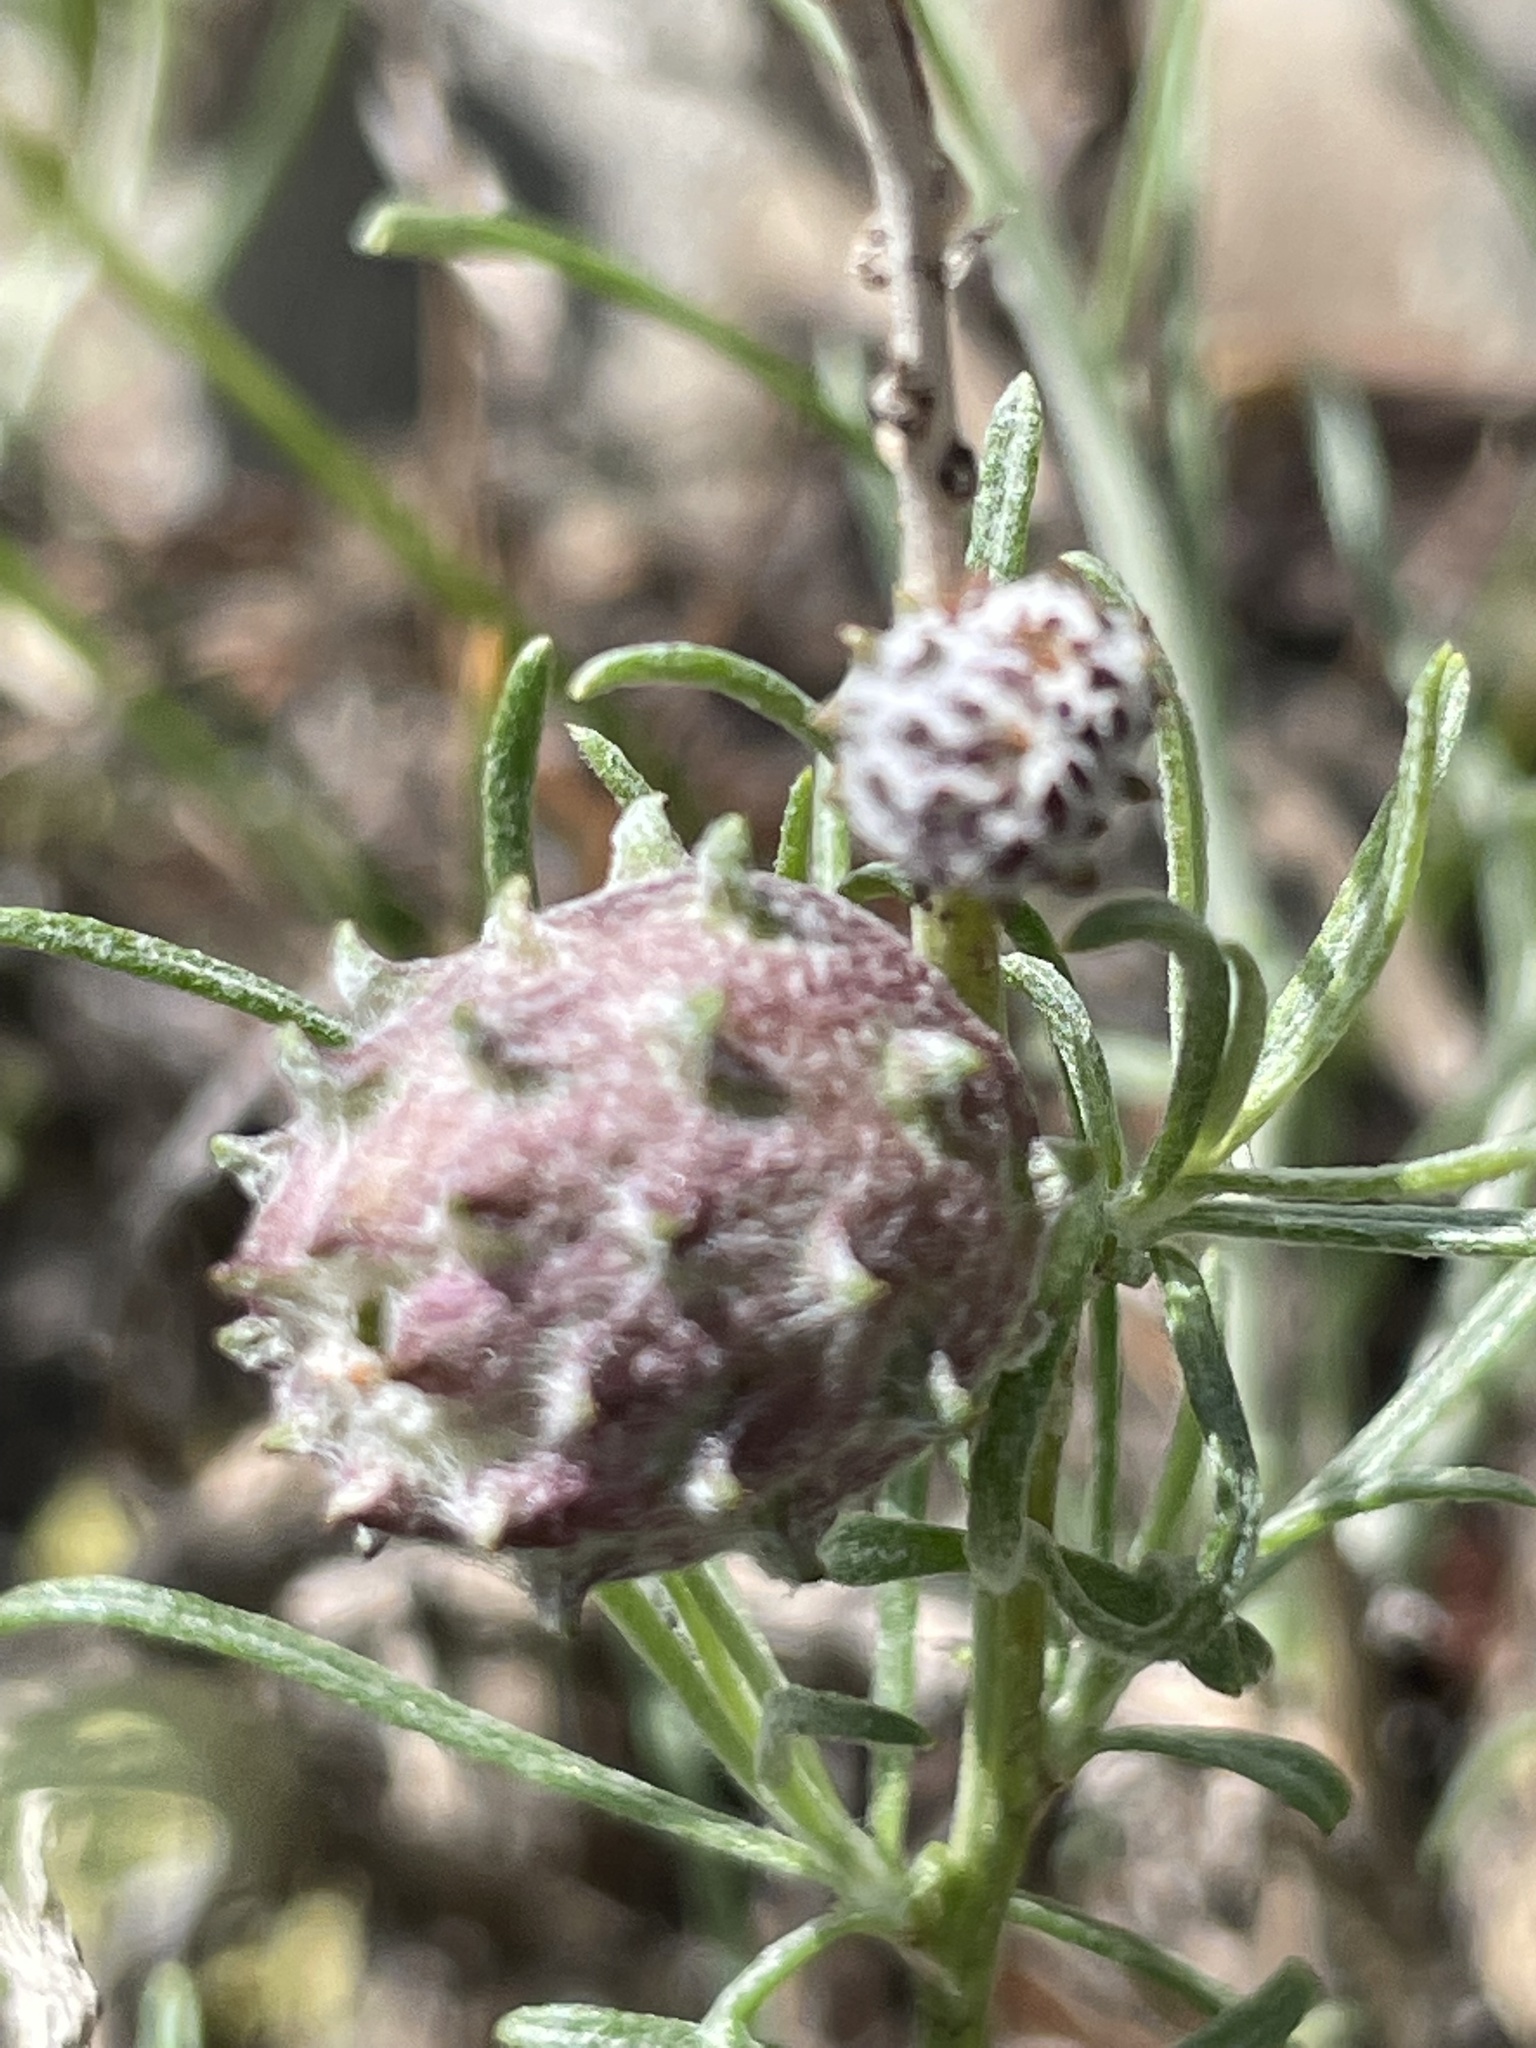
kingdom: Animalia
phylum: Arthropoda
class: Insecta
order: Diptera
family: Cecidomyiidae
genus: Rhopalomyia
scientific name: Rhopalomyia utahensis
